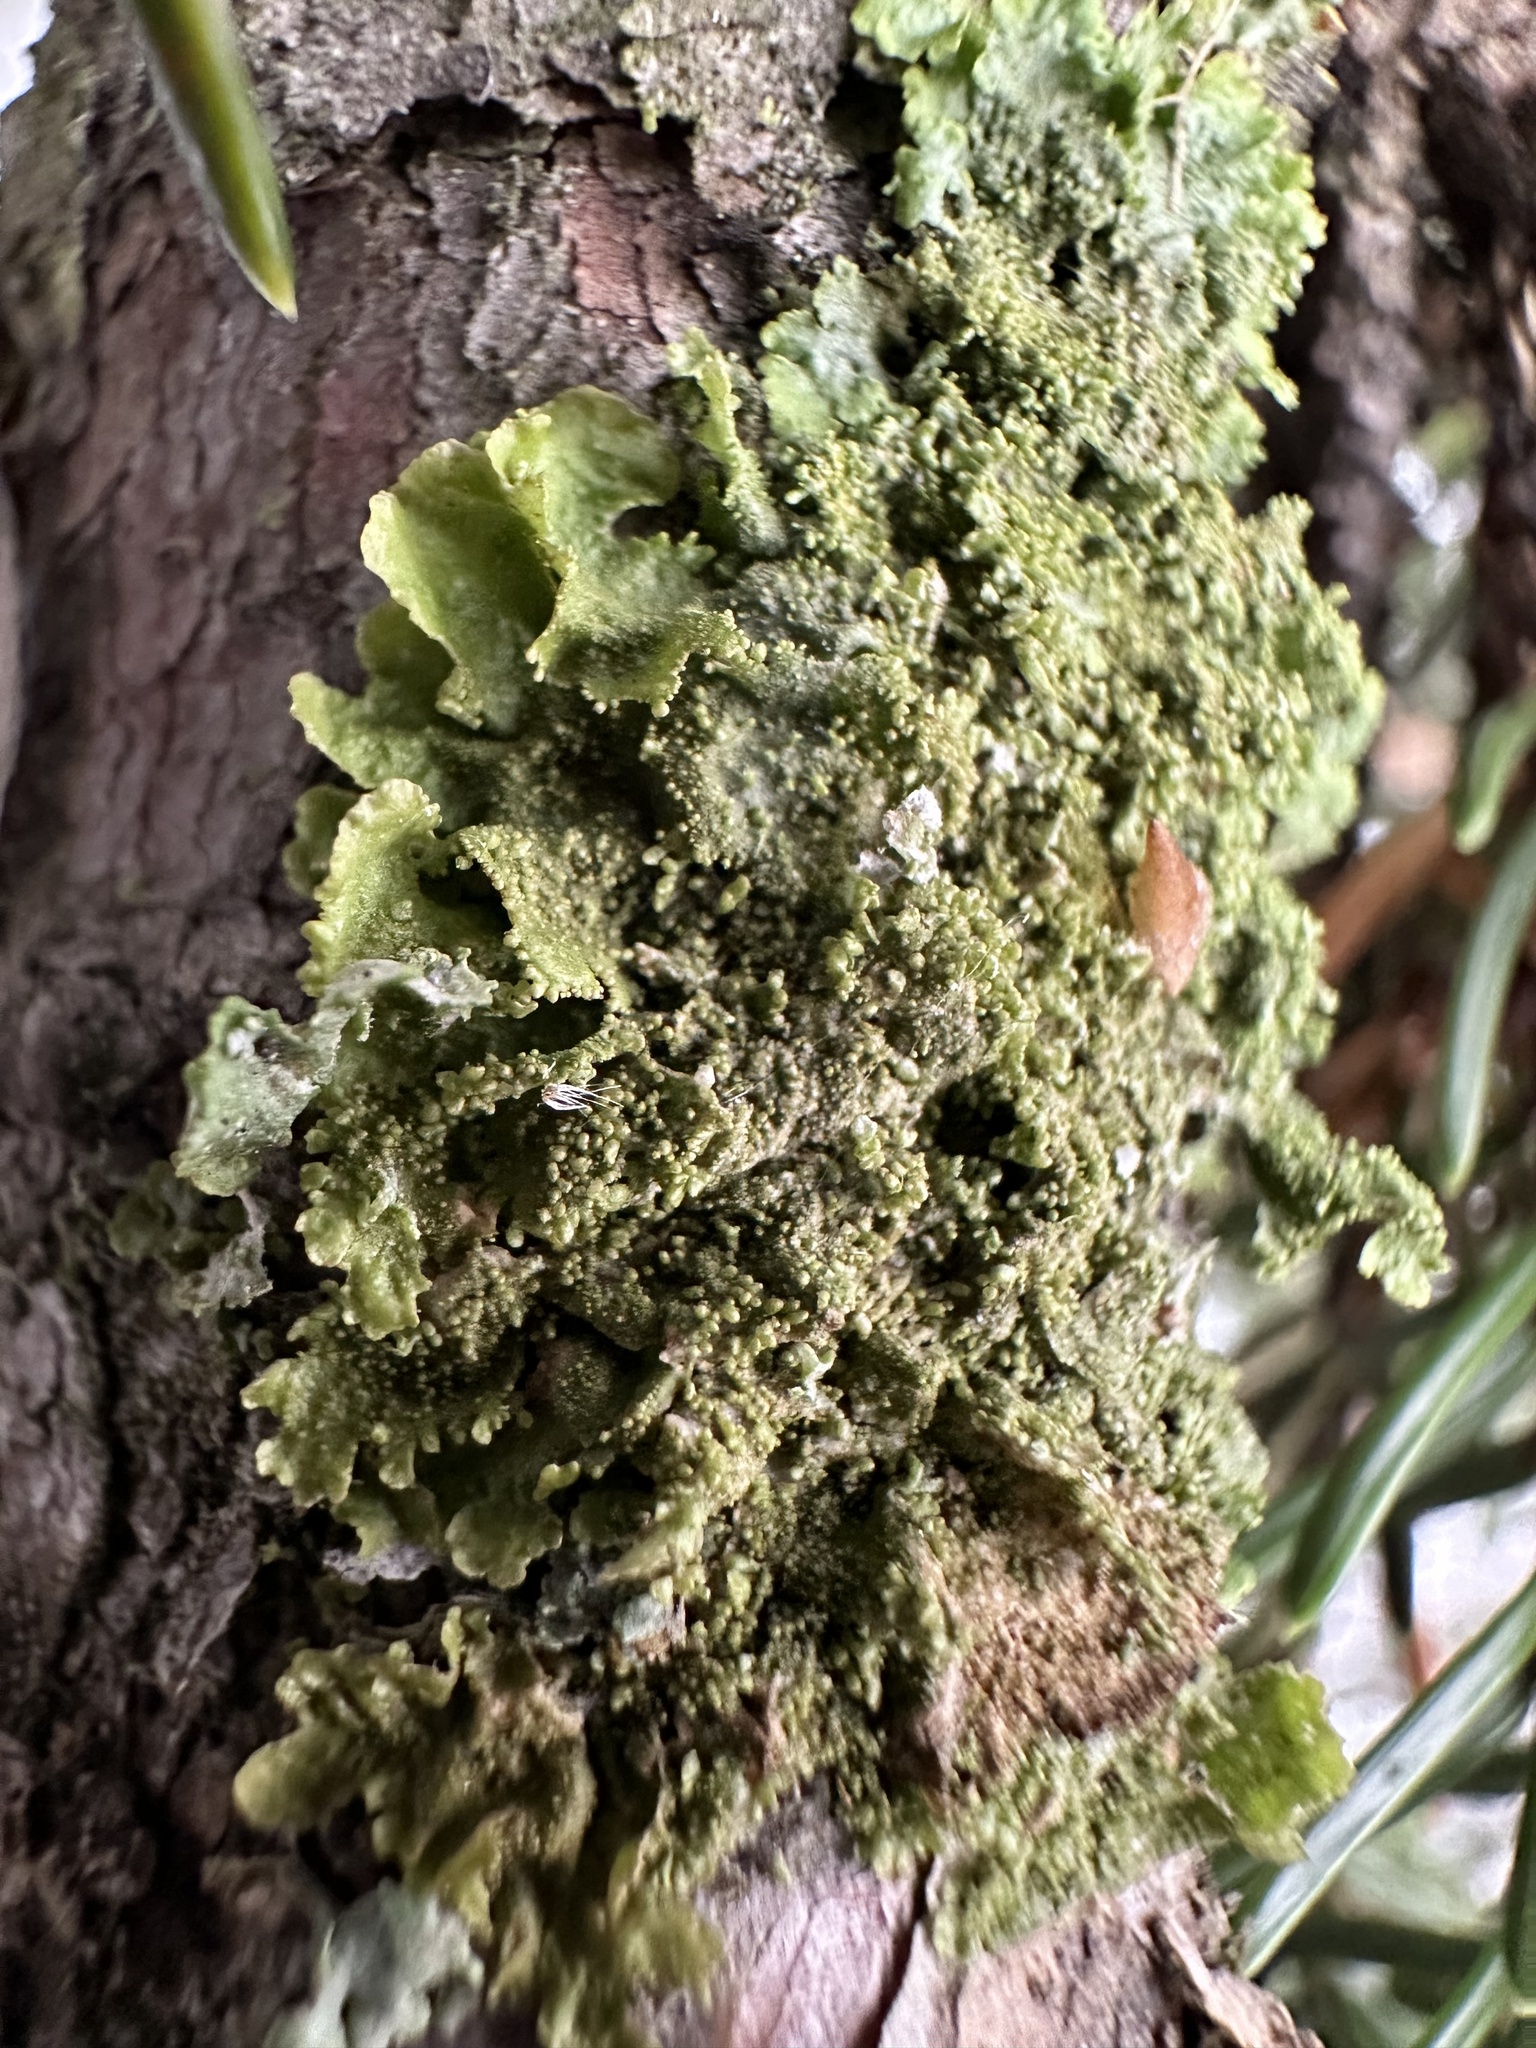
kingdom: Fungi
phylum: Ascomycota
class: Lecanoromycetes
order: Lecanorales
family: Parmeliaceae
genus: Melanohalea
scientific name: Melanohalea exasperatula
